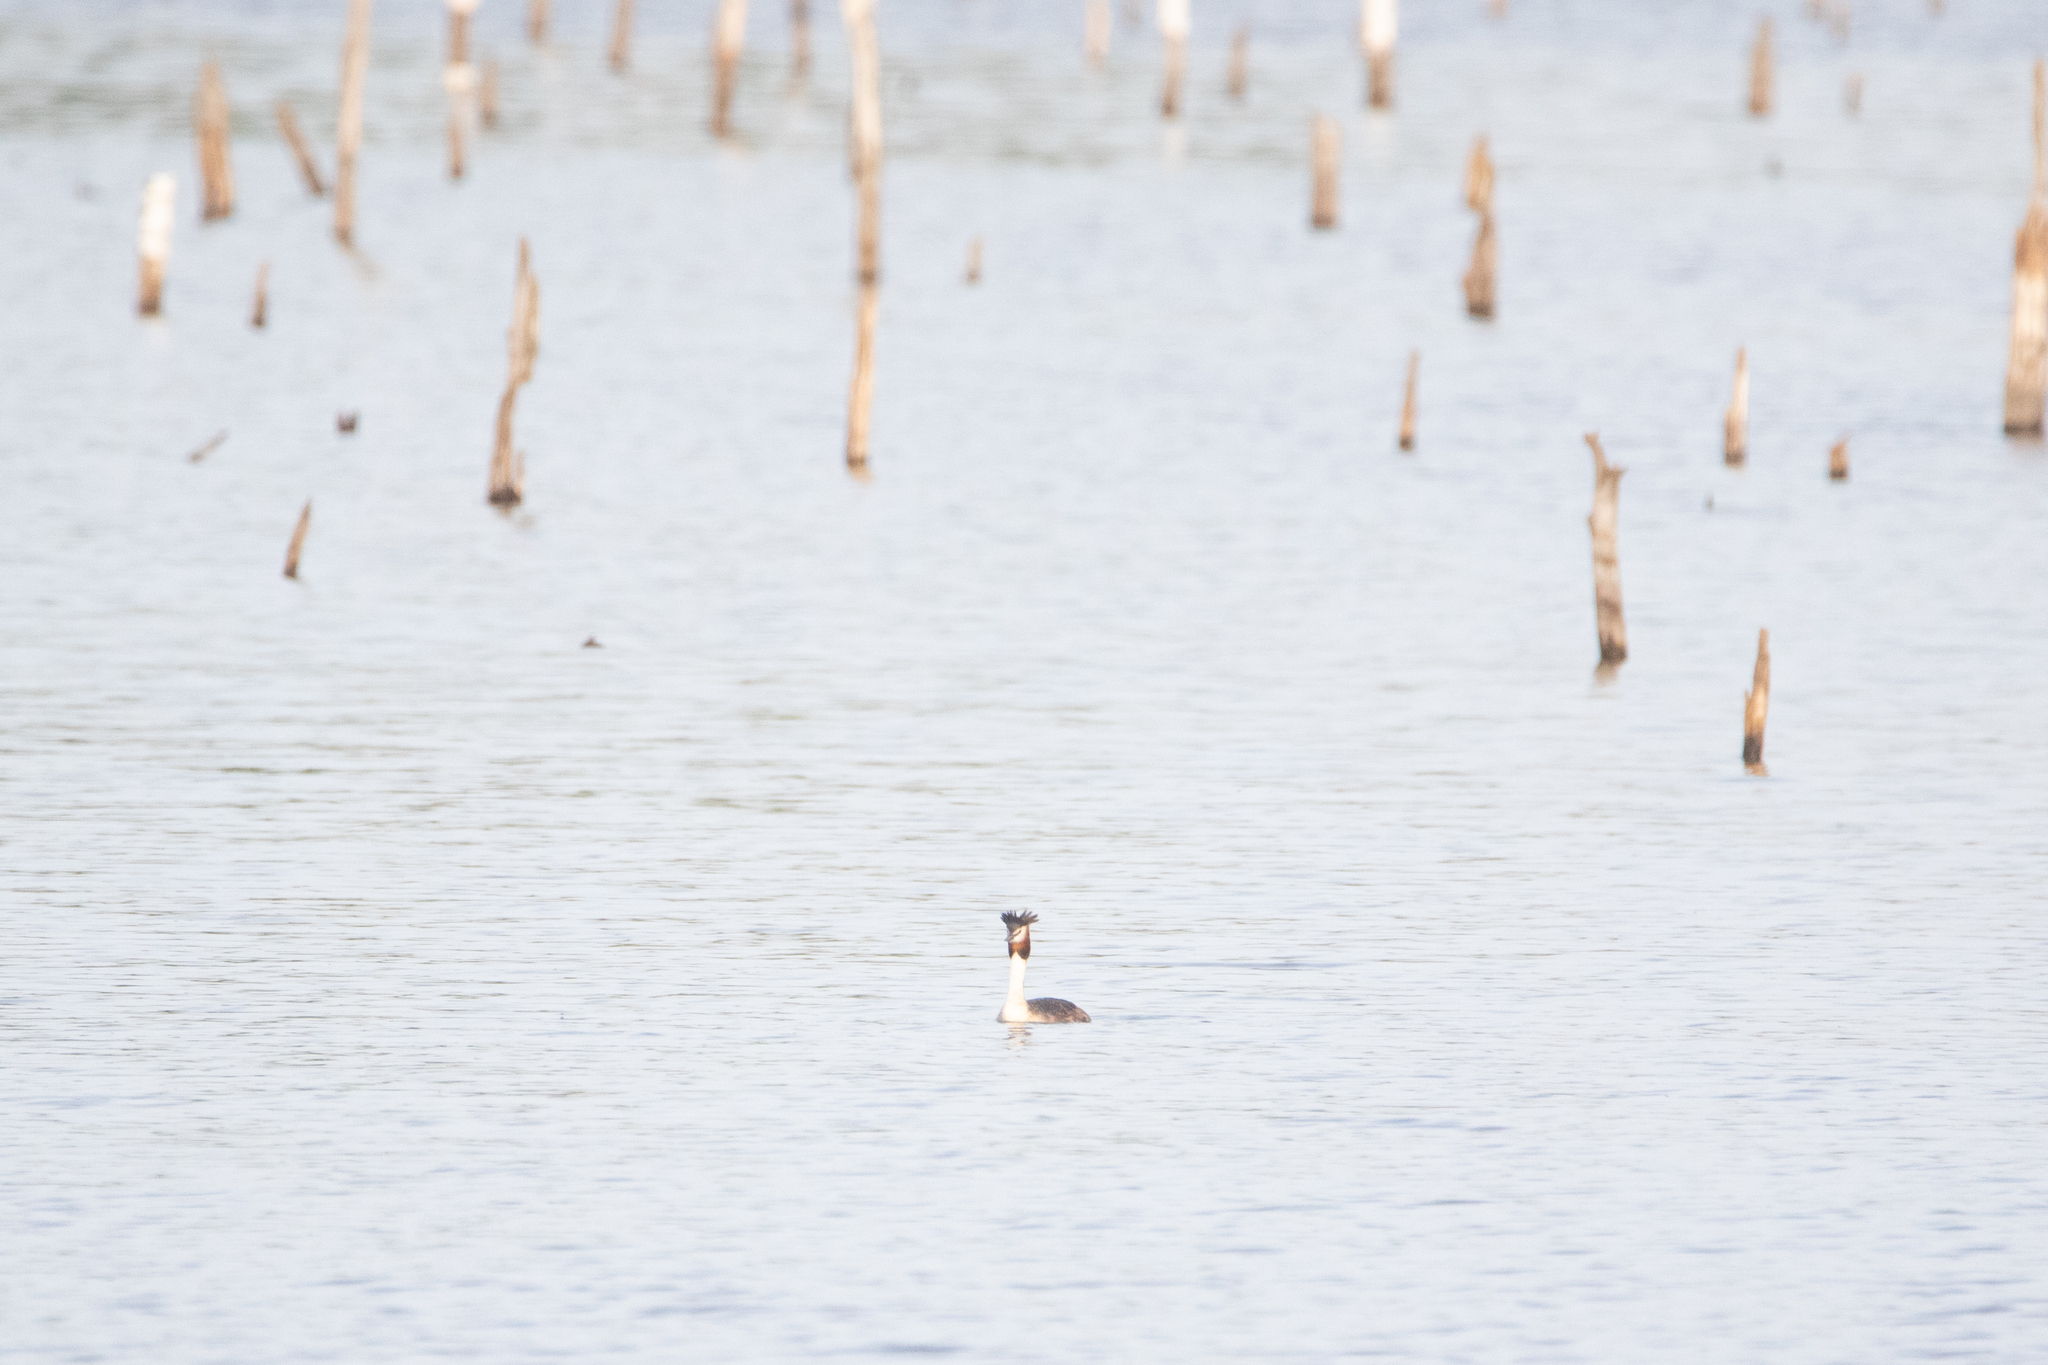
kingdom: Animalia
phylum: Chordata
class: Aves
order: Podicipediformes
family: Podicipedidae
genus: Podiceps
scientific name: Podiceps cristatus
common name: Great crested grebe
